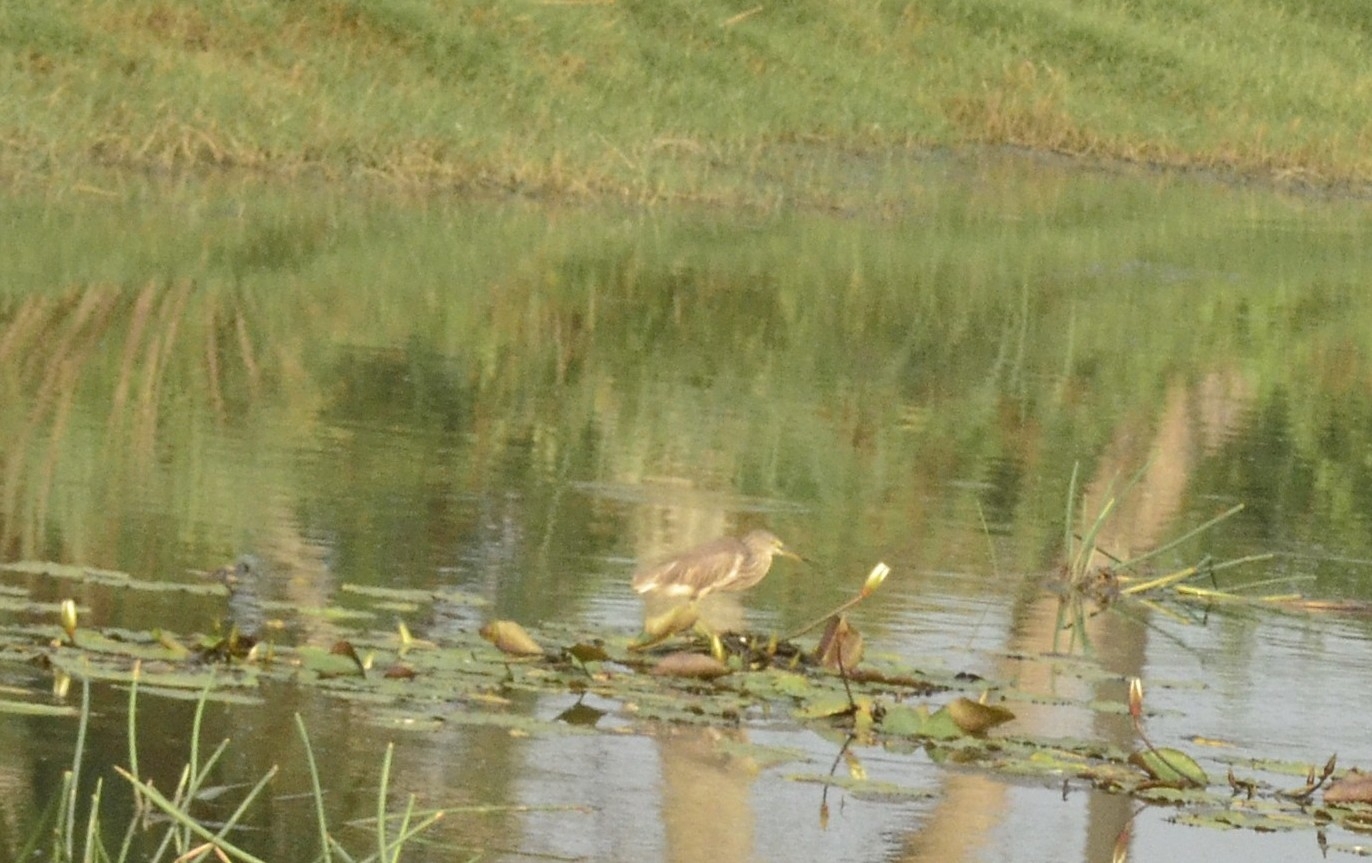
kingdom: Animalia
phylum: Chordata
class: Aves
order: Pelecaniformes
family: Ardeidae
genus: Ardeola
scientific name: Ardeola grayii
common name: Indian pond heron
